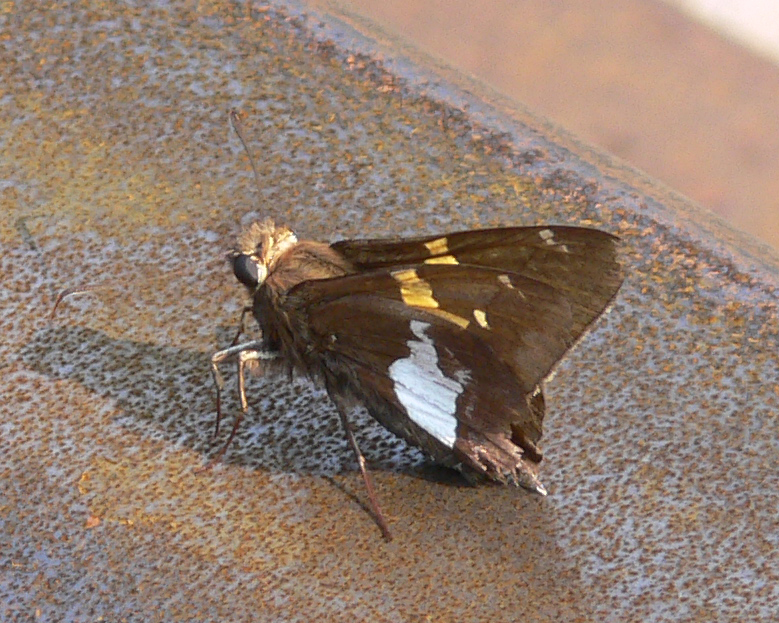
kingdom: Animalia
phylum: Arthropoda
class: Insecta
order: Lepidoptera
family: Hesperiidae
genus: Epargyreus
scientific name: Epargyreus clarus
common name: Silver-spotted skipper
